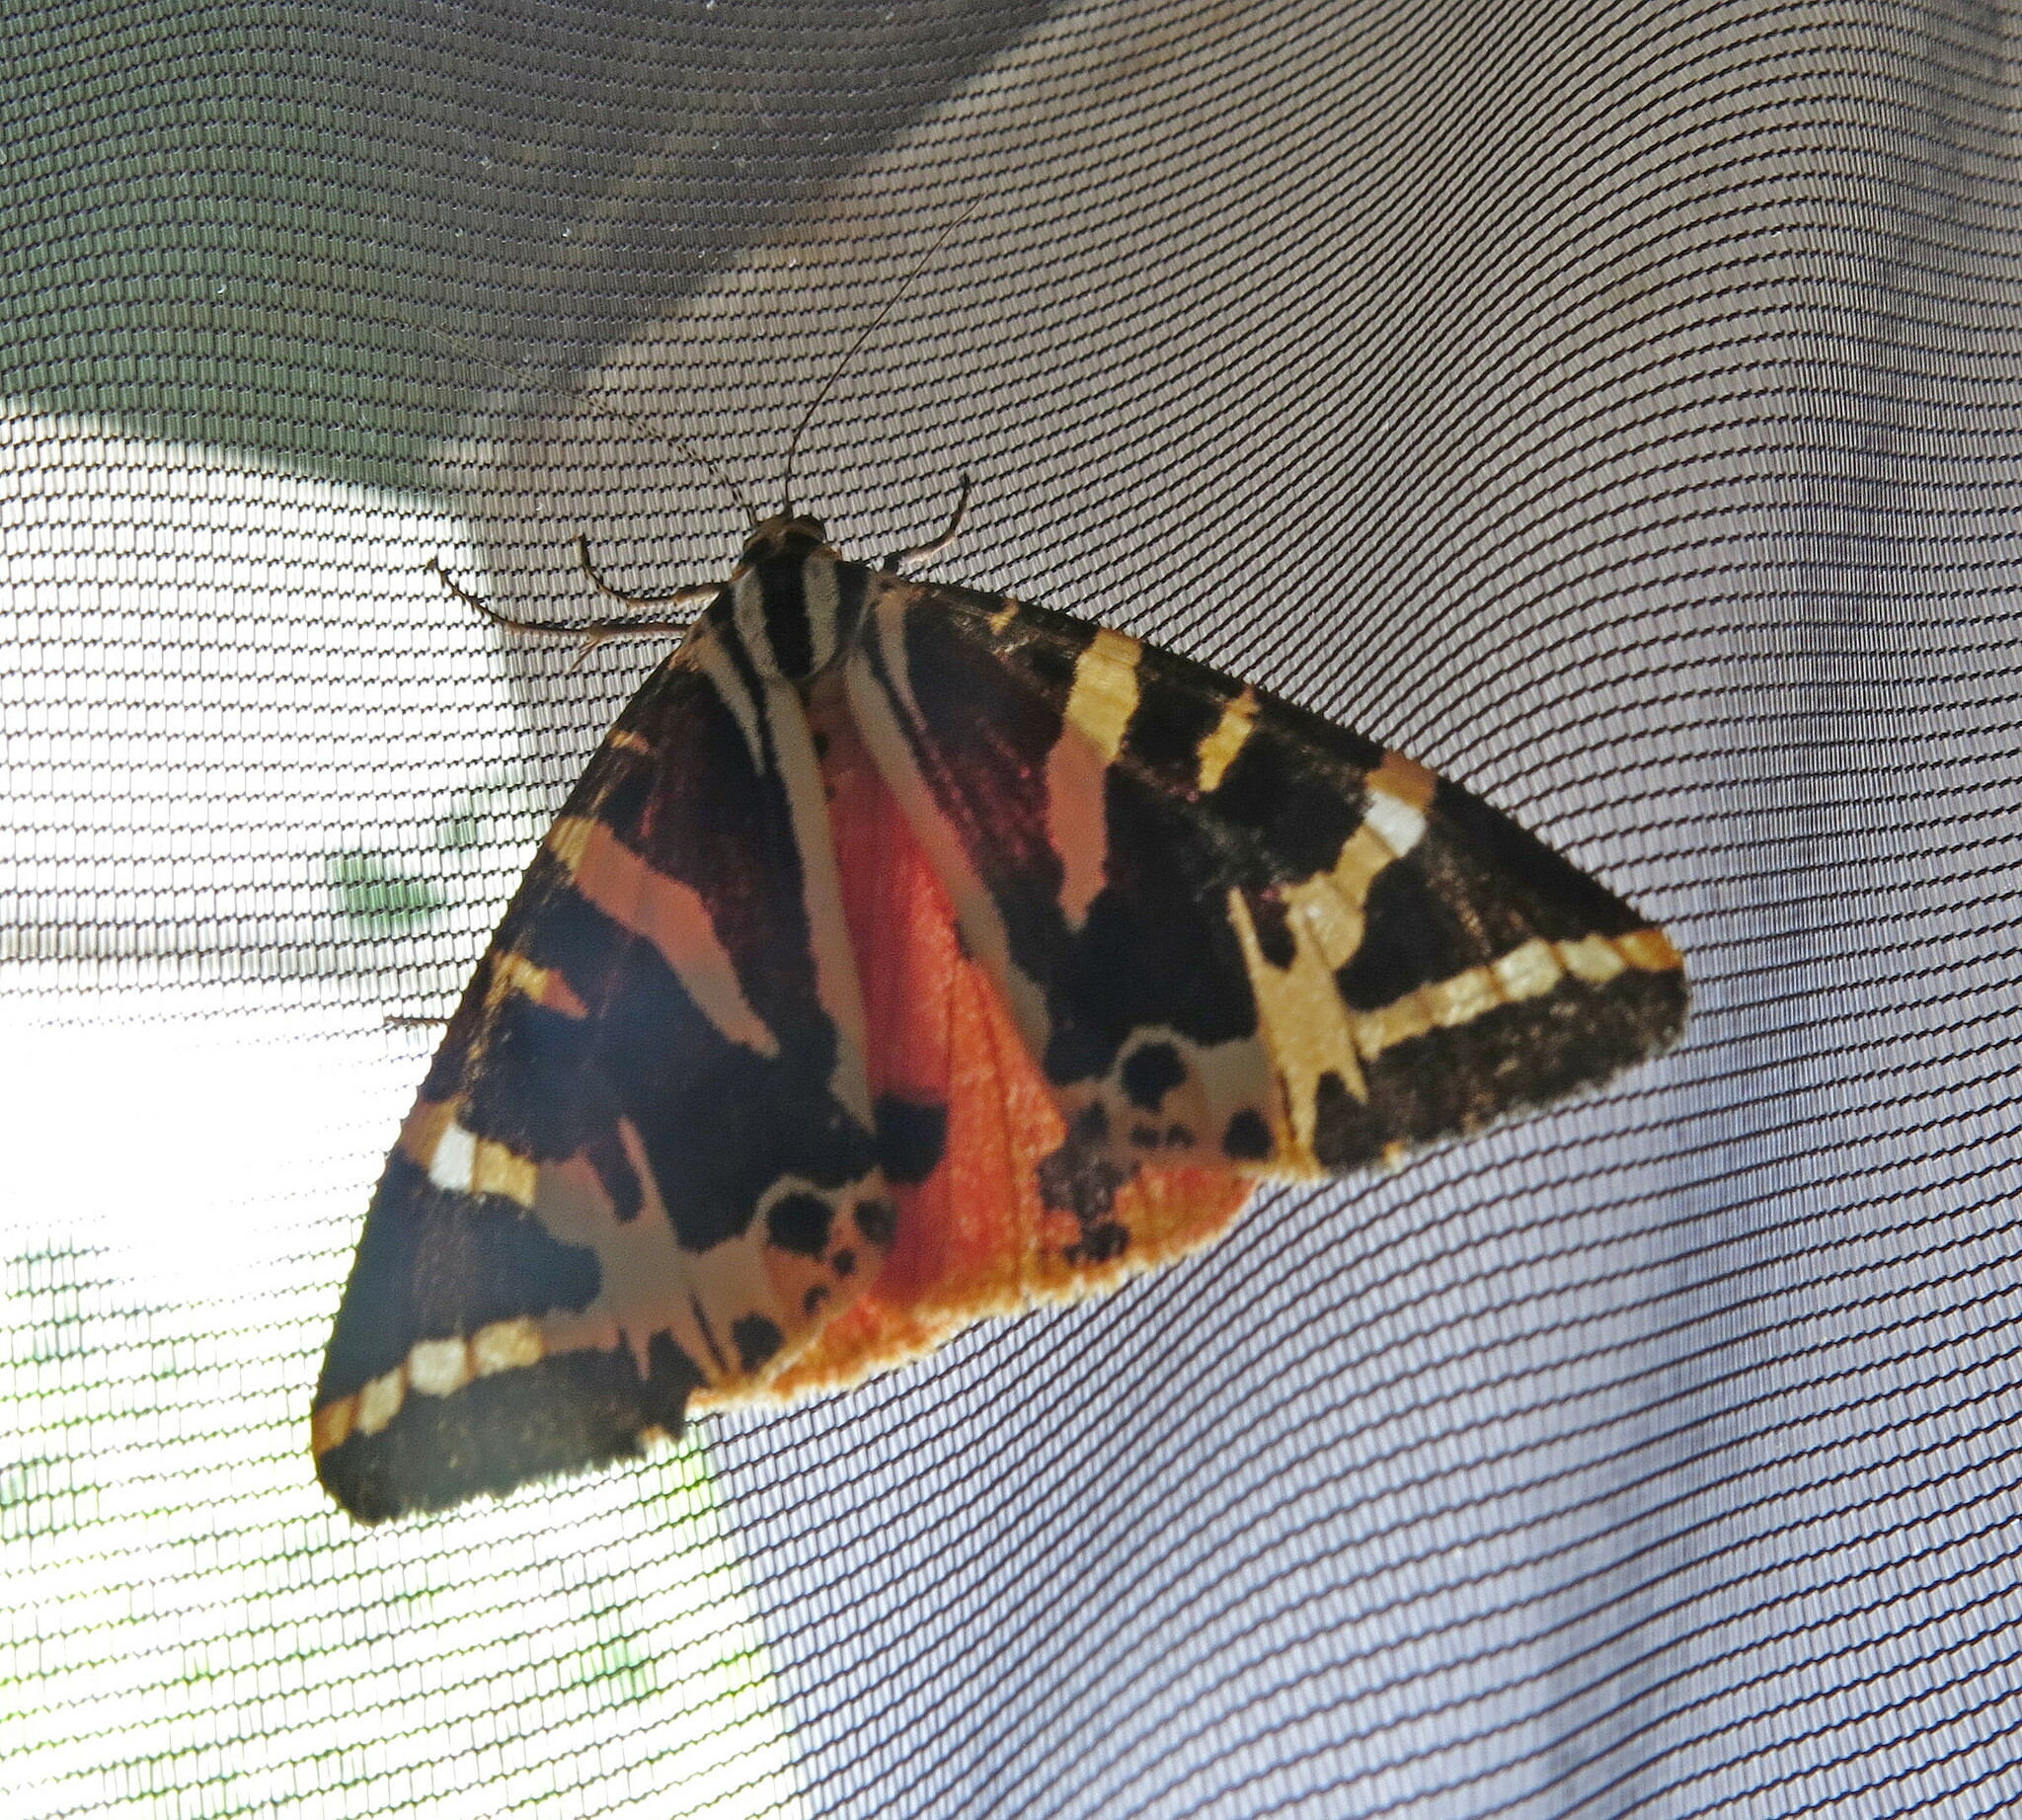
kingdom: Animalia
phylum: Arthropoda
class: Insecta
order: Lepidoptera
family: Erebidae
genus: Euplagia
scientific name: Euplagia quadripunctaria
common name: Jersey tiger
